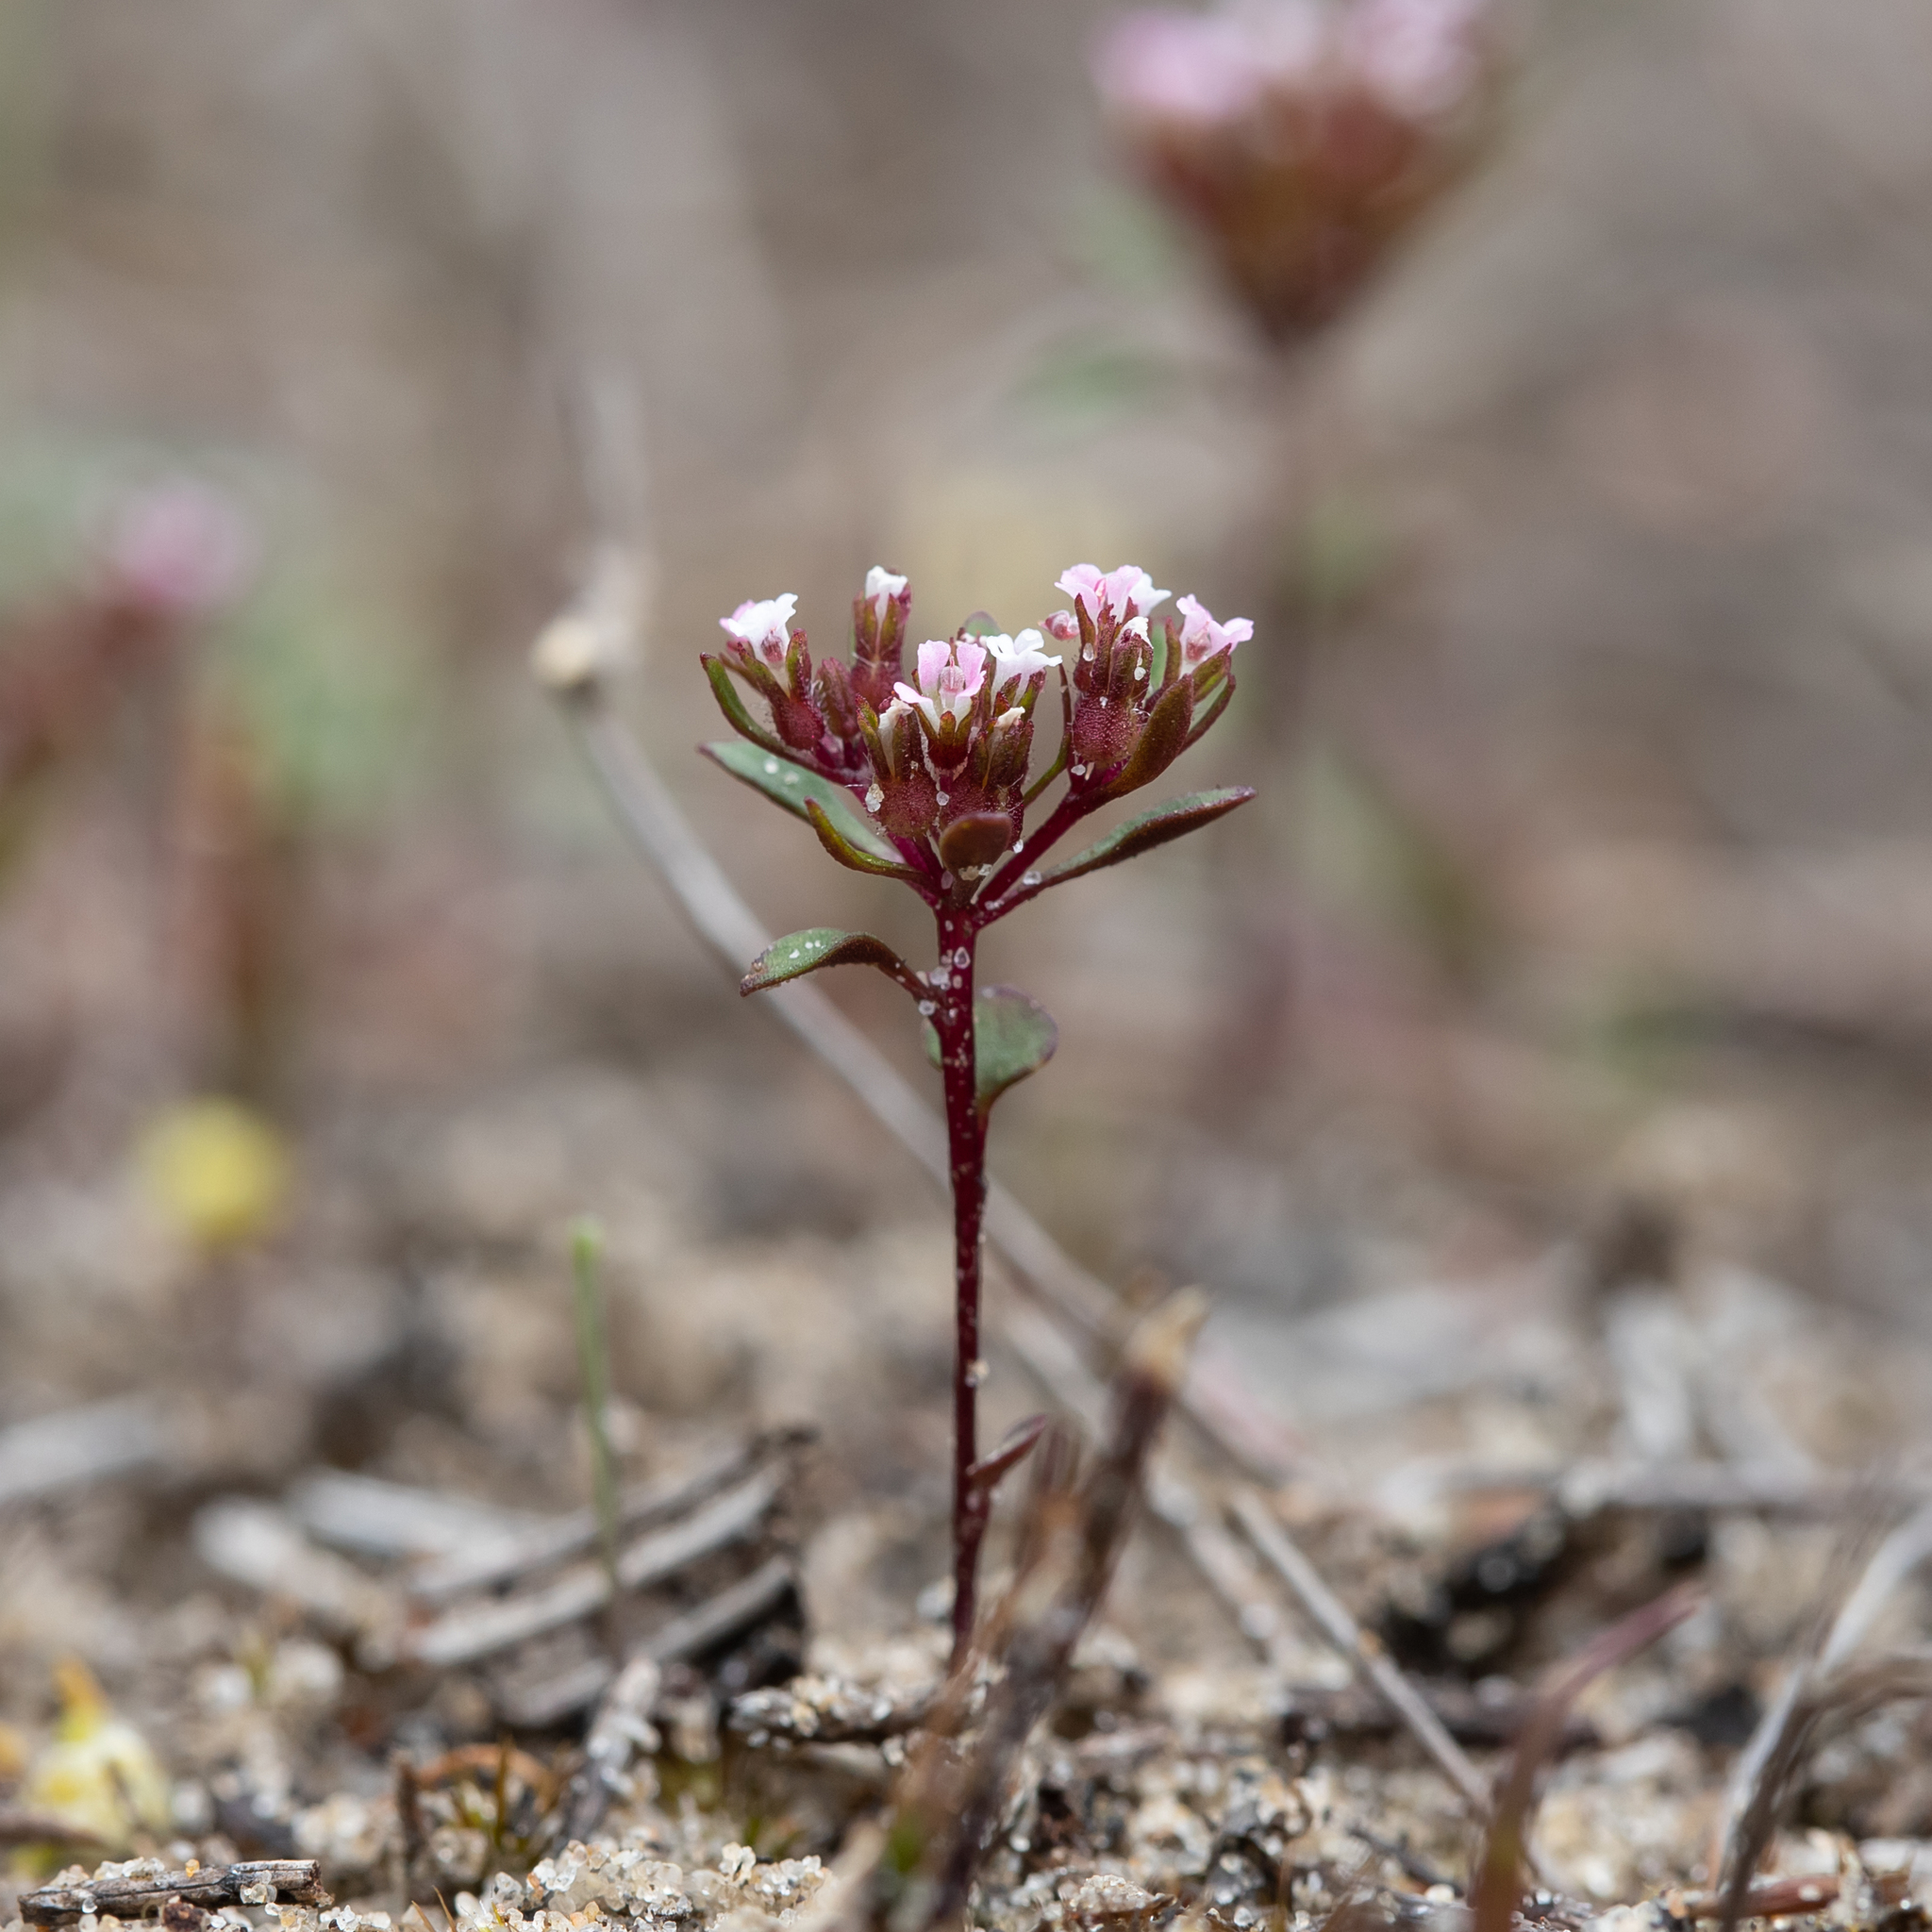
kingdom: Plantae
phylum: Tracheophyta
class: Magnoliopsida
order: Asterales
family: Stylidiaceae
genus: Levenhookia
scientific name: Levenhookia pusilla
